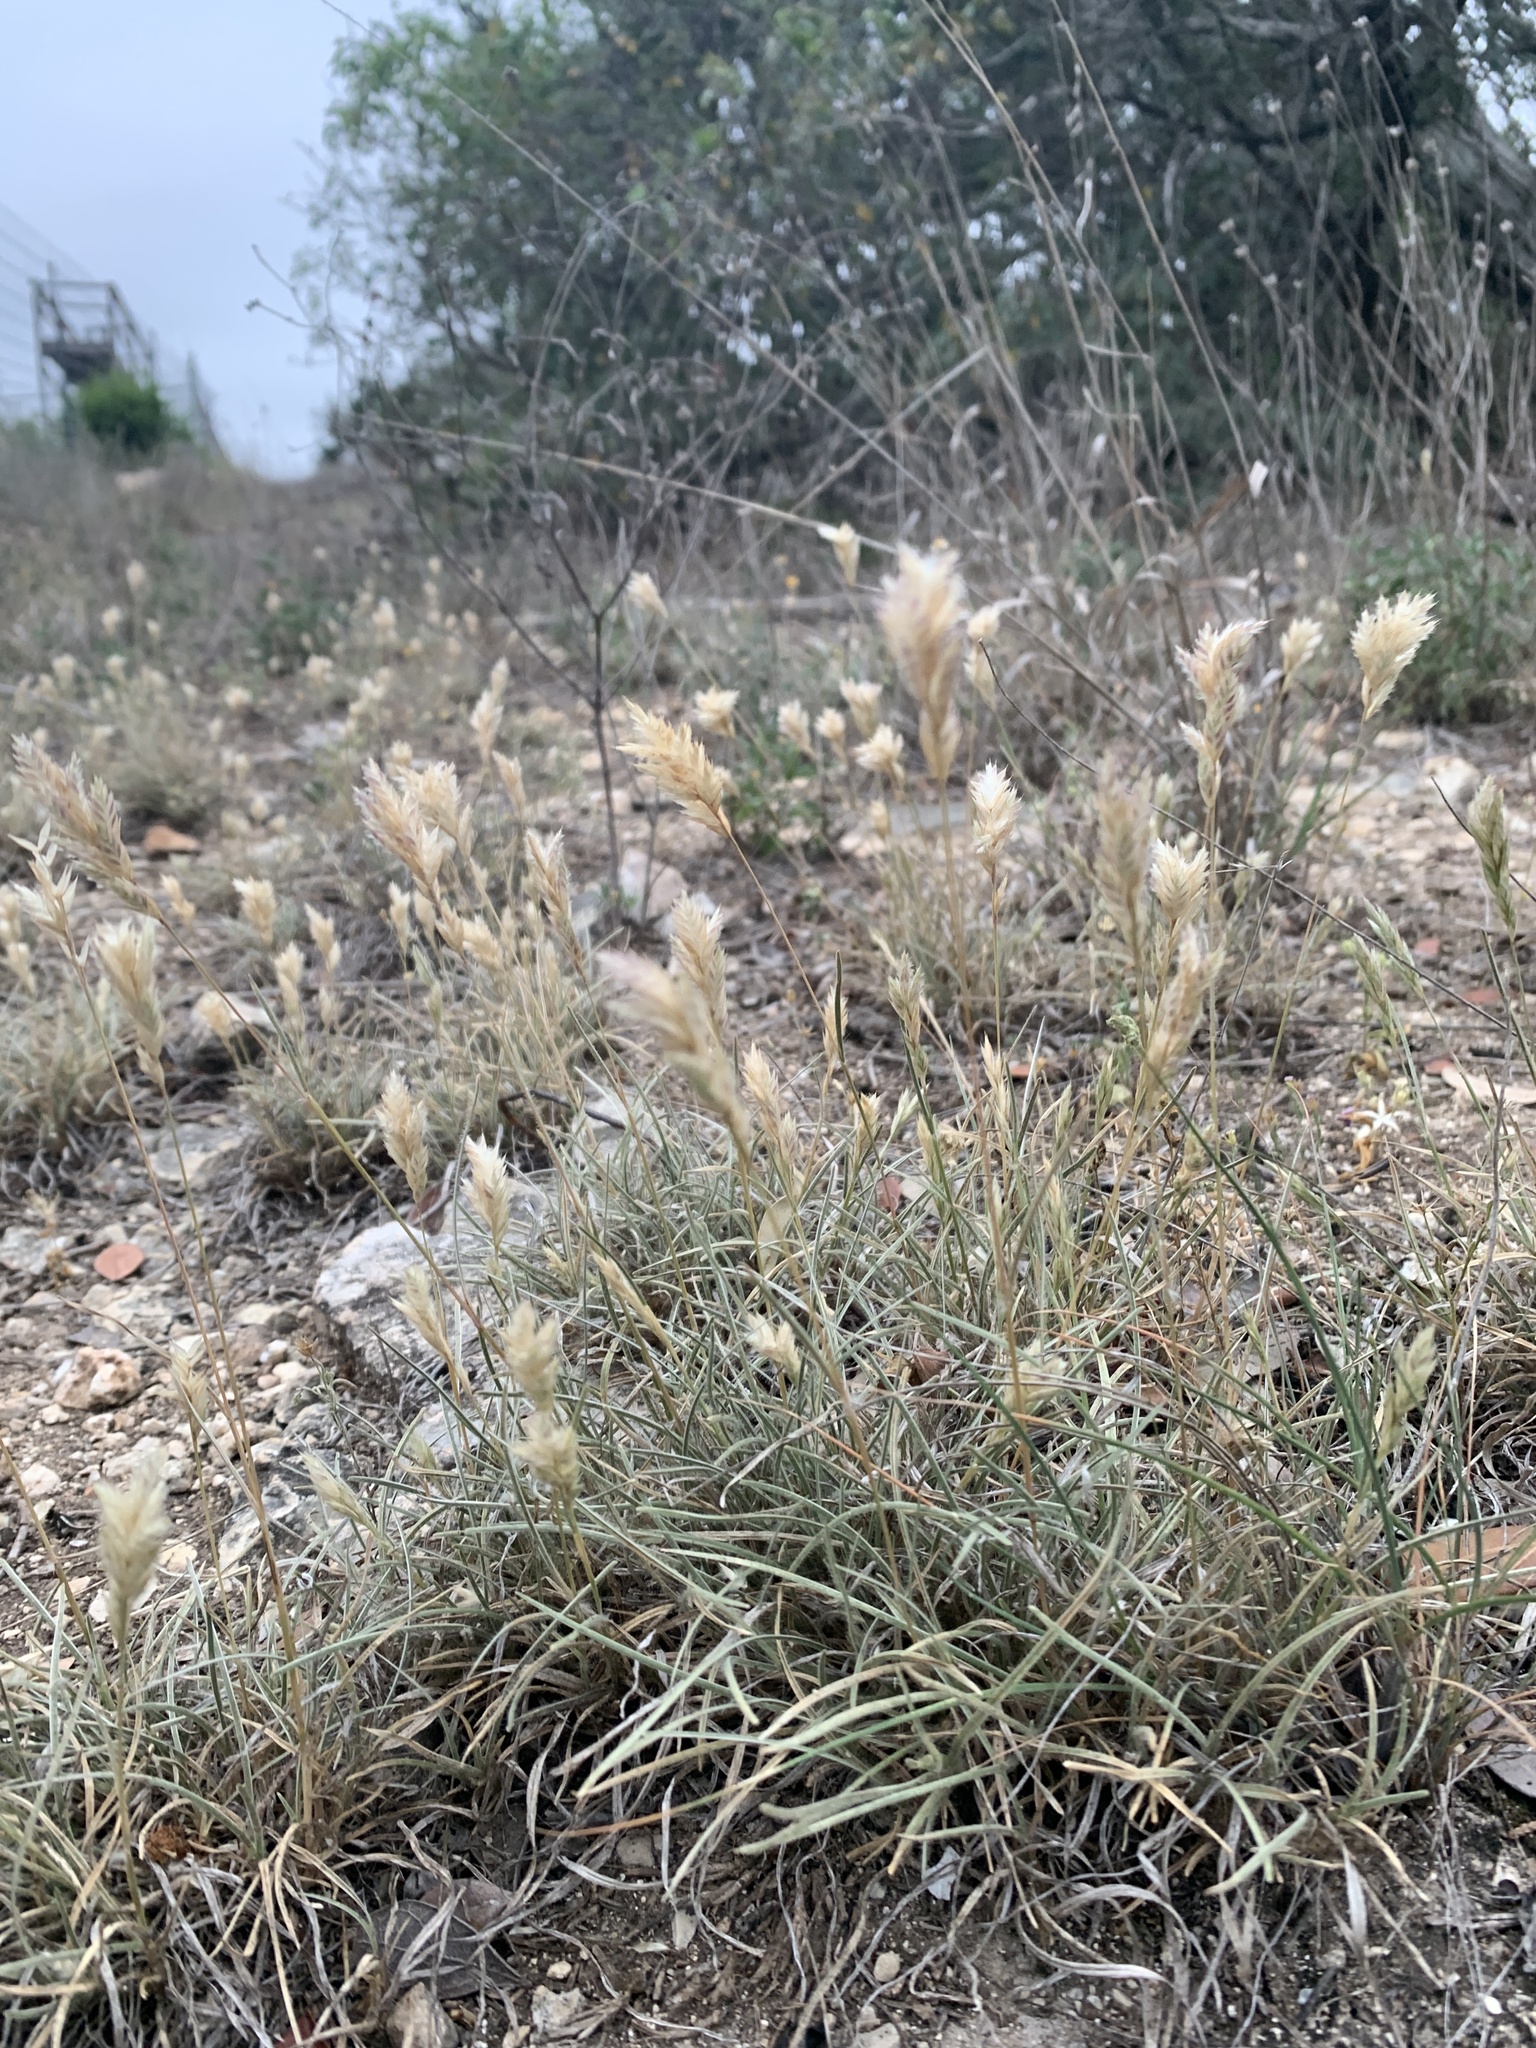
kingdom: Plantae
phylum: Tracheophyta
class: Liliopsida
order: Poales
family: Poaceae
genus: Erioneuron
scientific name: Erioneuron pilosum
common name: Hairy woolly grass
